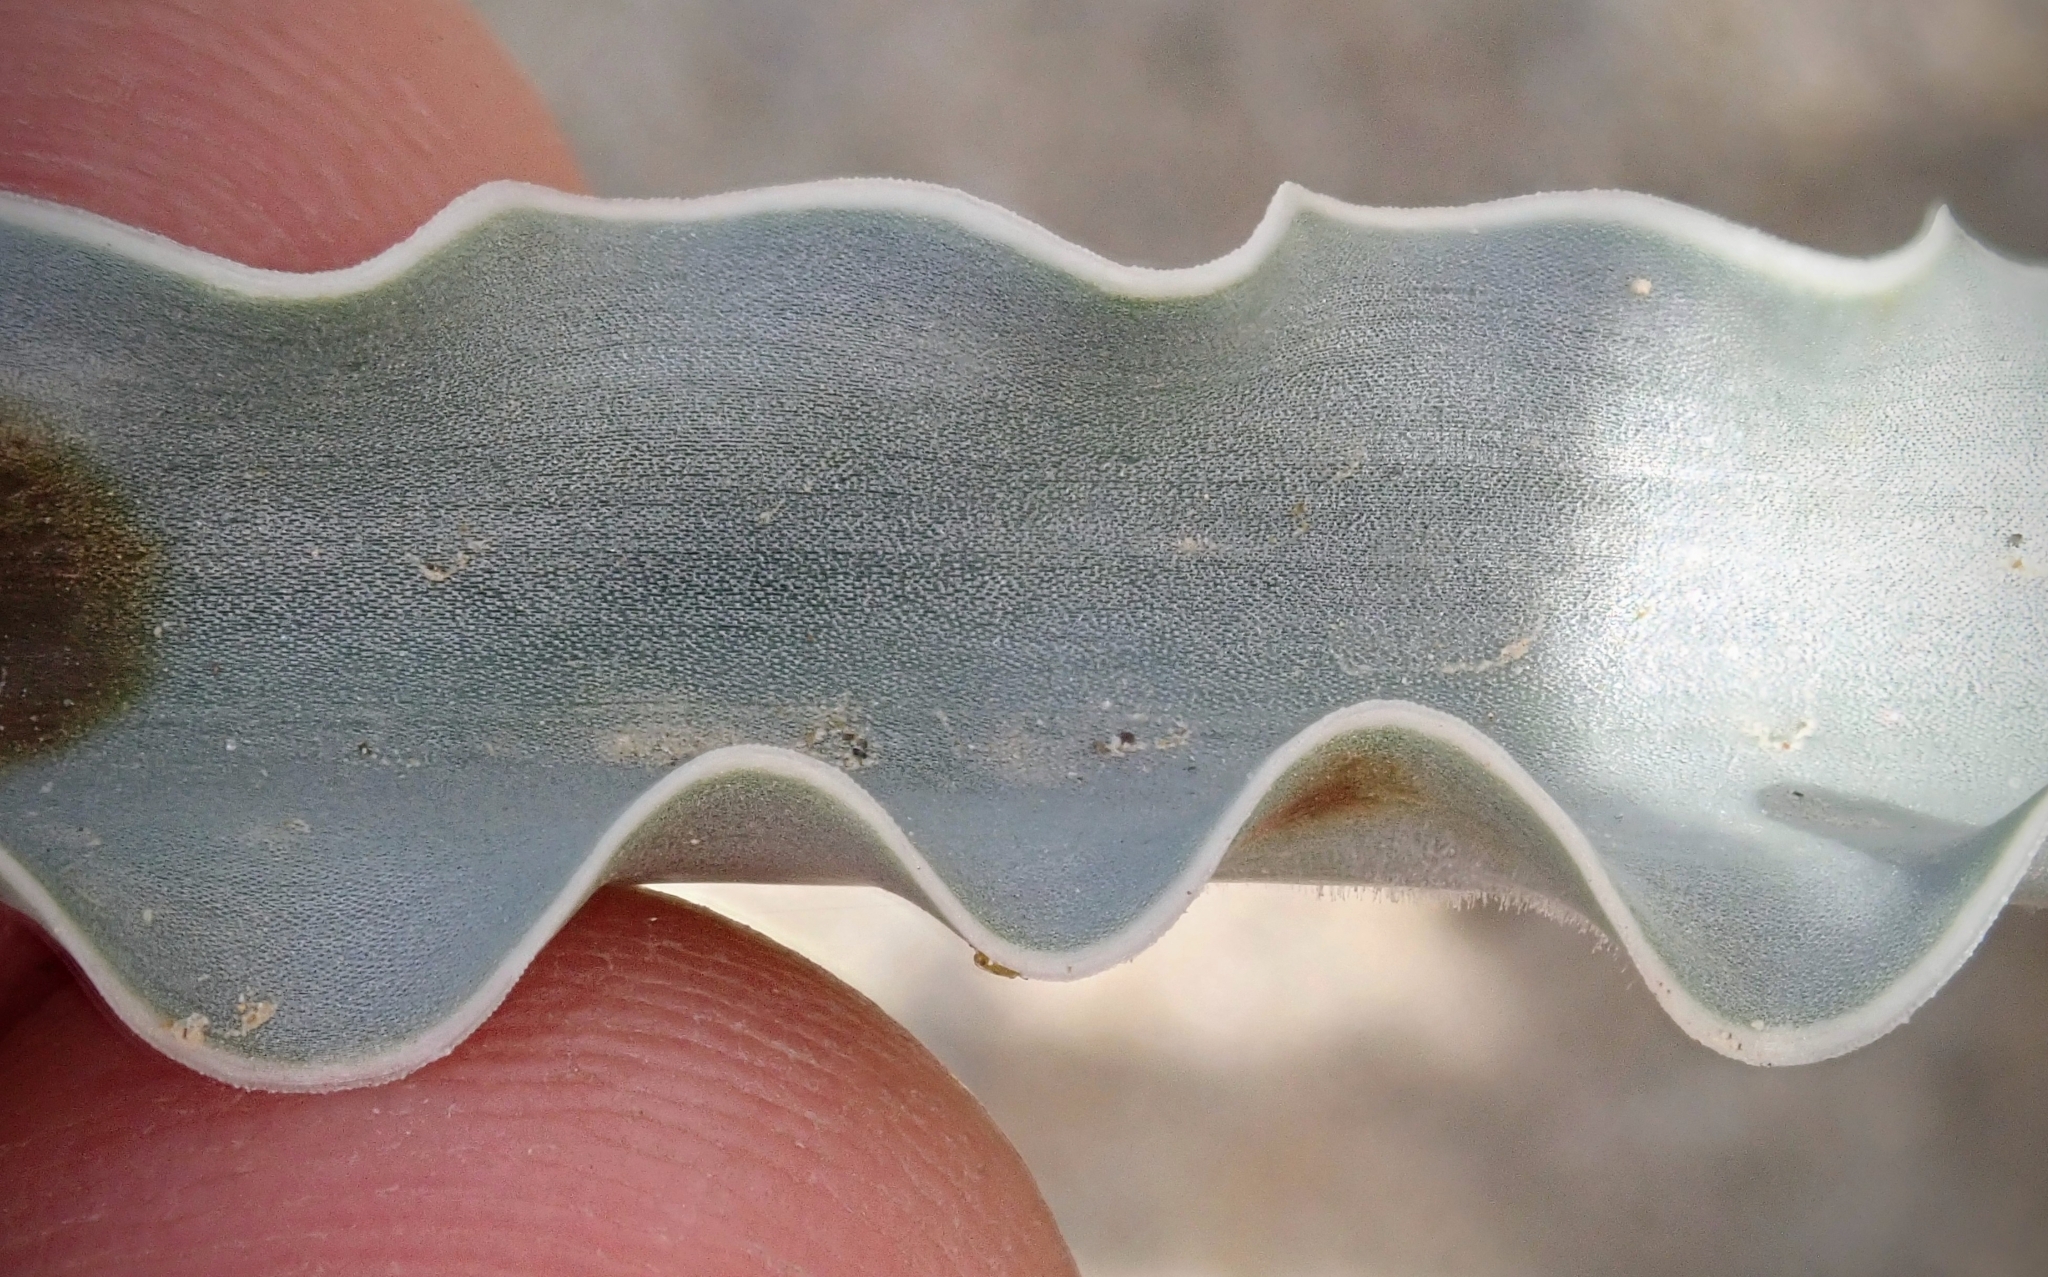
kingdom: Plantae
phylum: Tracheophyta
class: Liliopsida
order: Asparagales
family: Asparagaceae
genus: Hesperocallis
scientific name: Hesperocallis undulata
